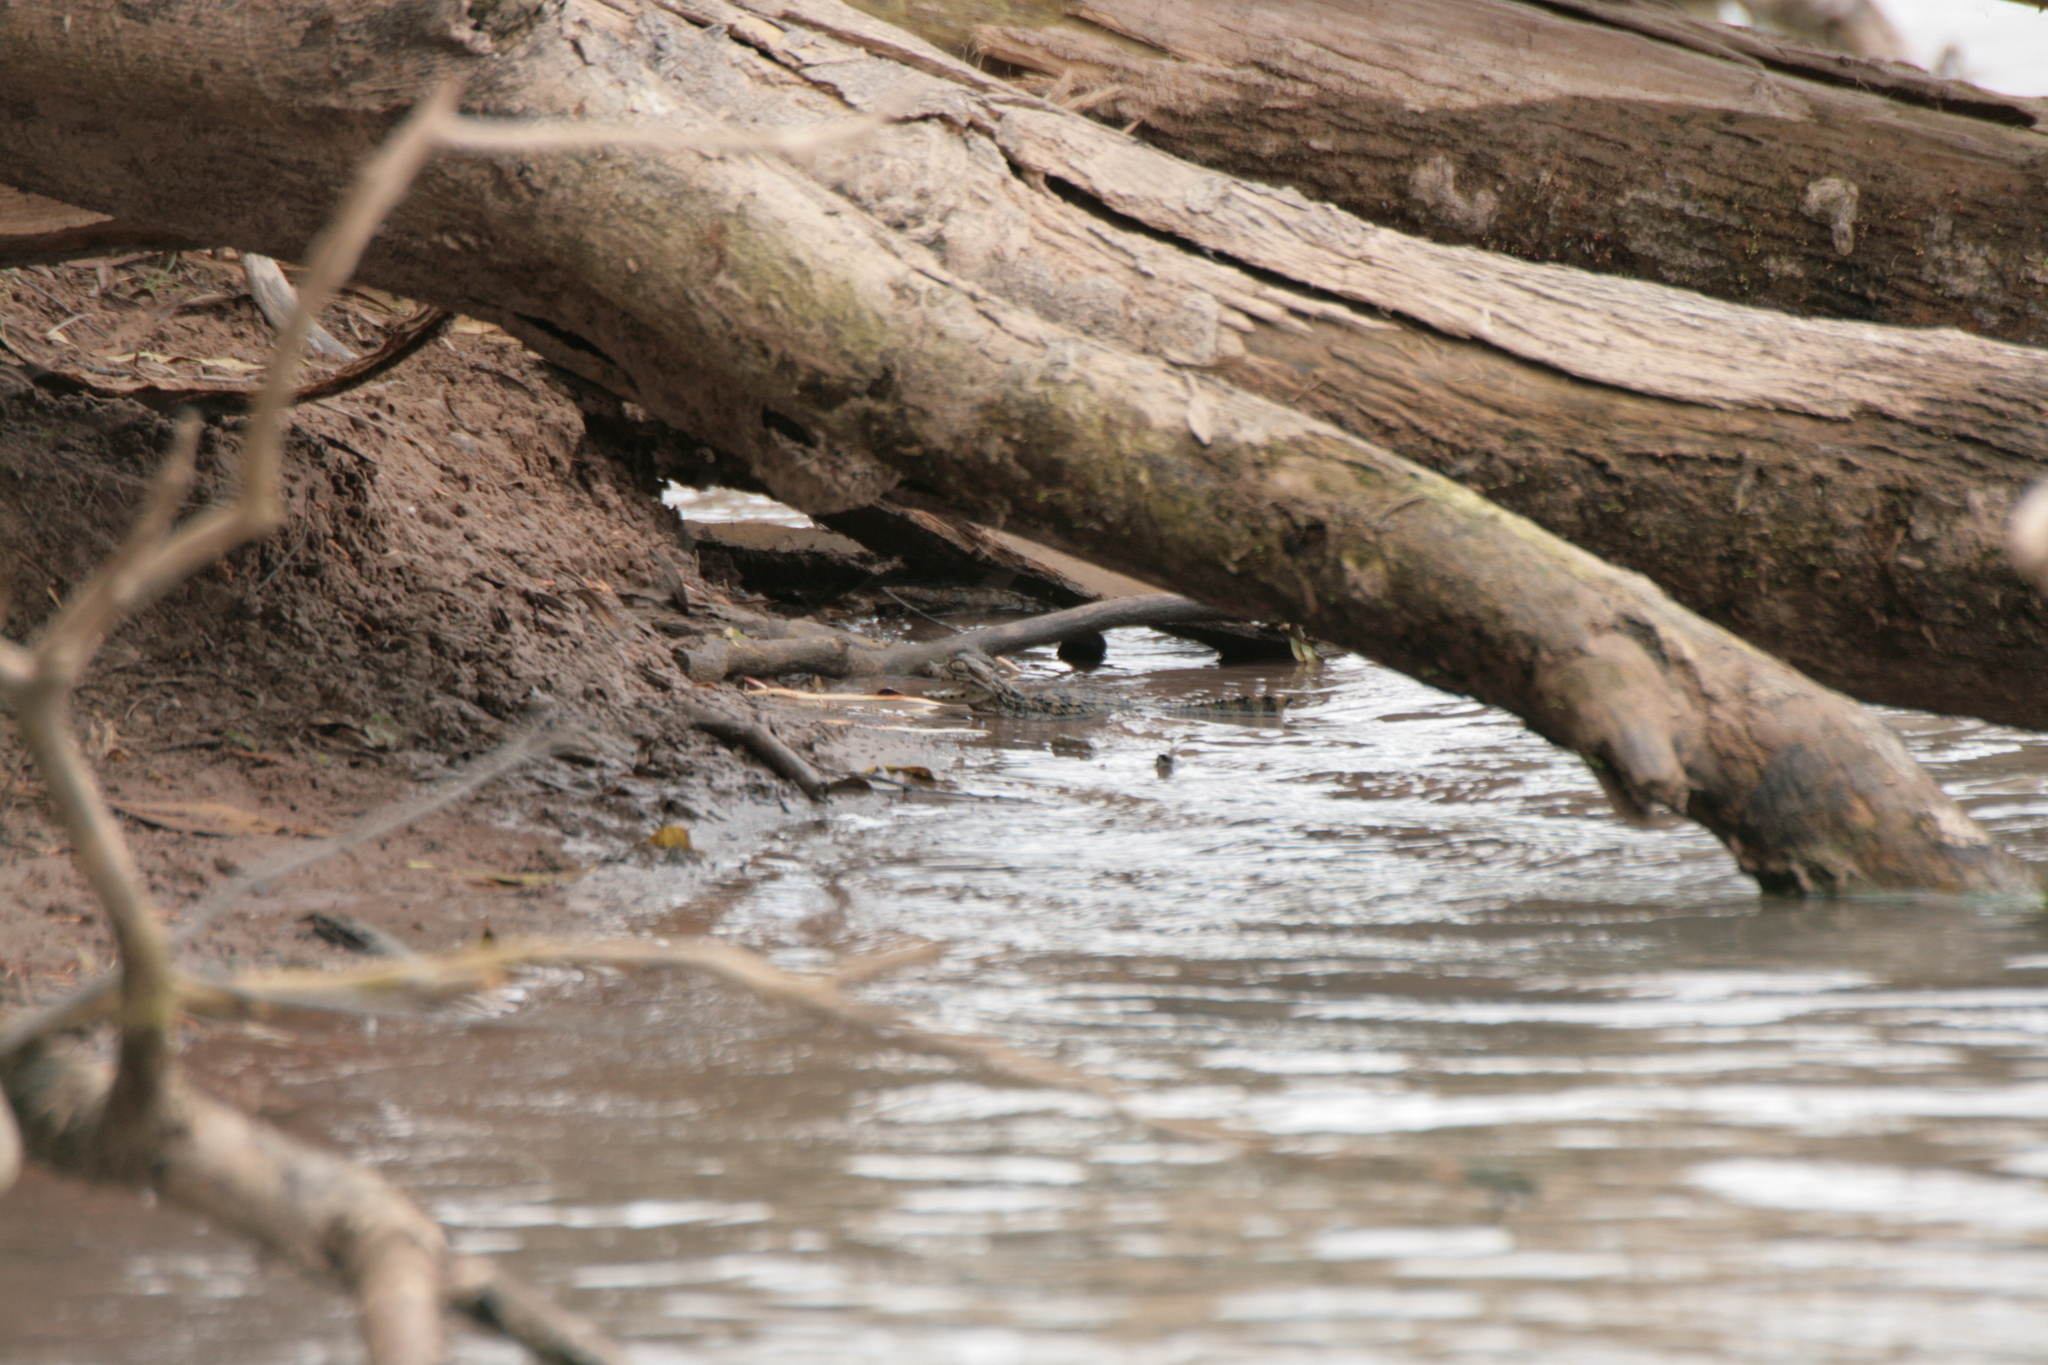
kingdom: Animalia
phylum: Chordata
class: Crocodylia
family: Alligatoridae
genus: Caiman
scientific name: Caiman latirostris
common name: Broad-snouted caiman
